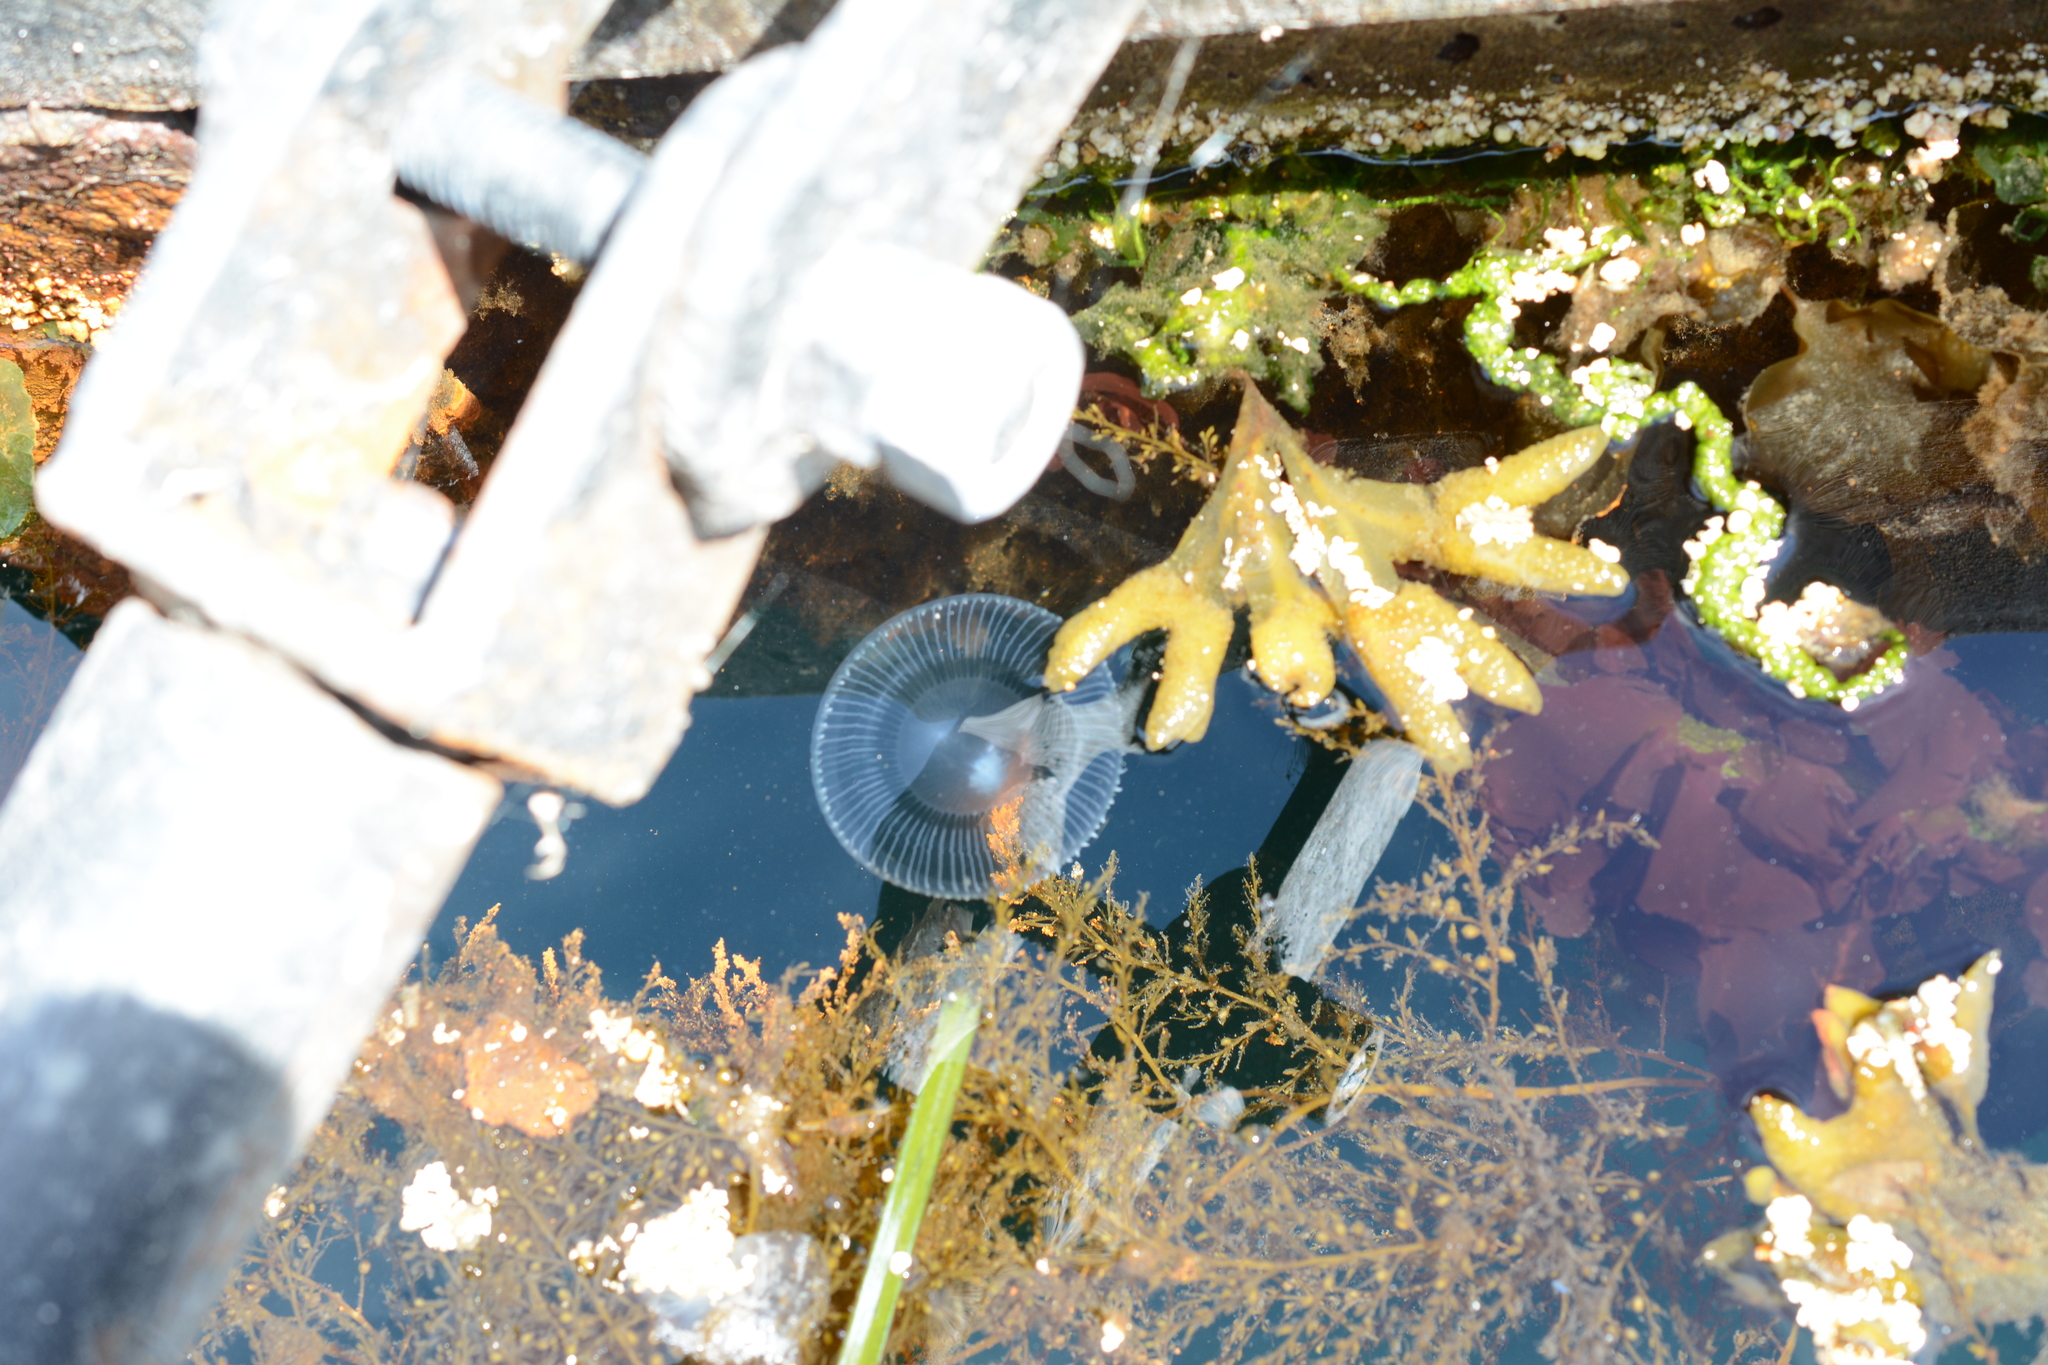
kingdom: Animalia
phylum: Cnidaria
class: Hydrozoa
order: Leptothecata
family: Aequoreidae
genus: Aequorea
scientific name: Aequorea victoria
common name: Water jellyfish
